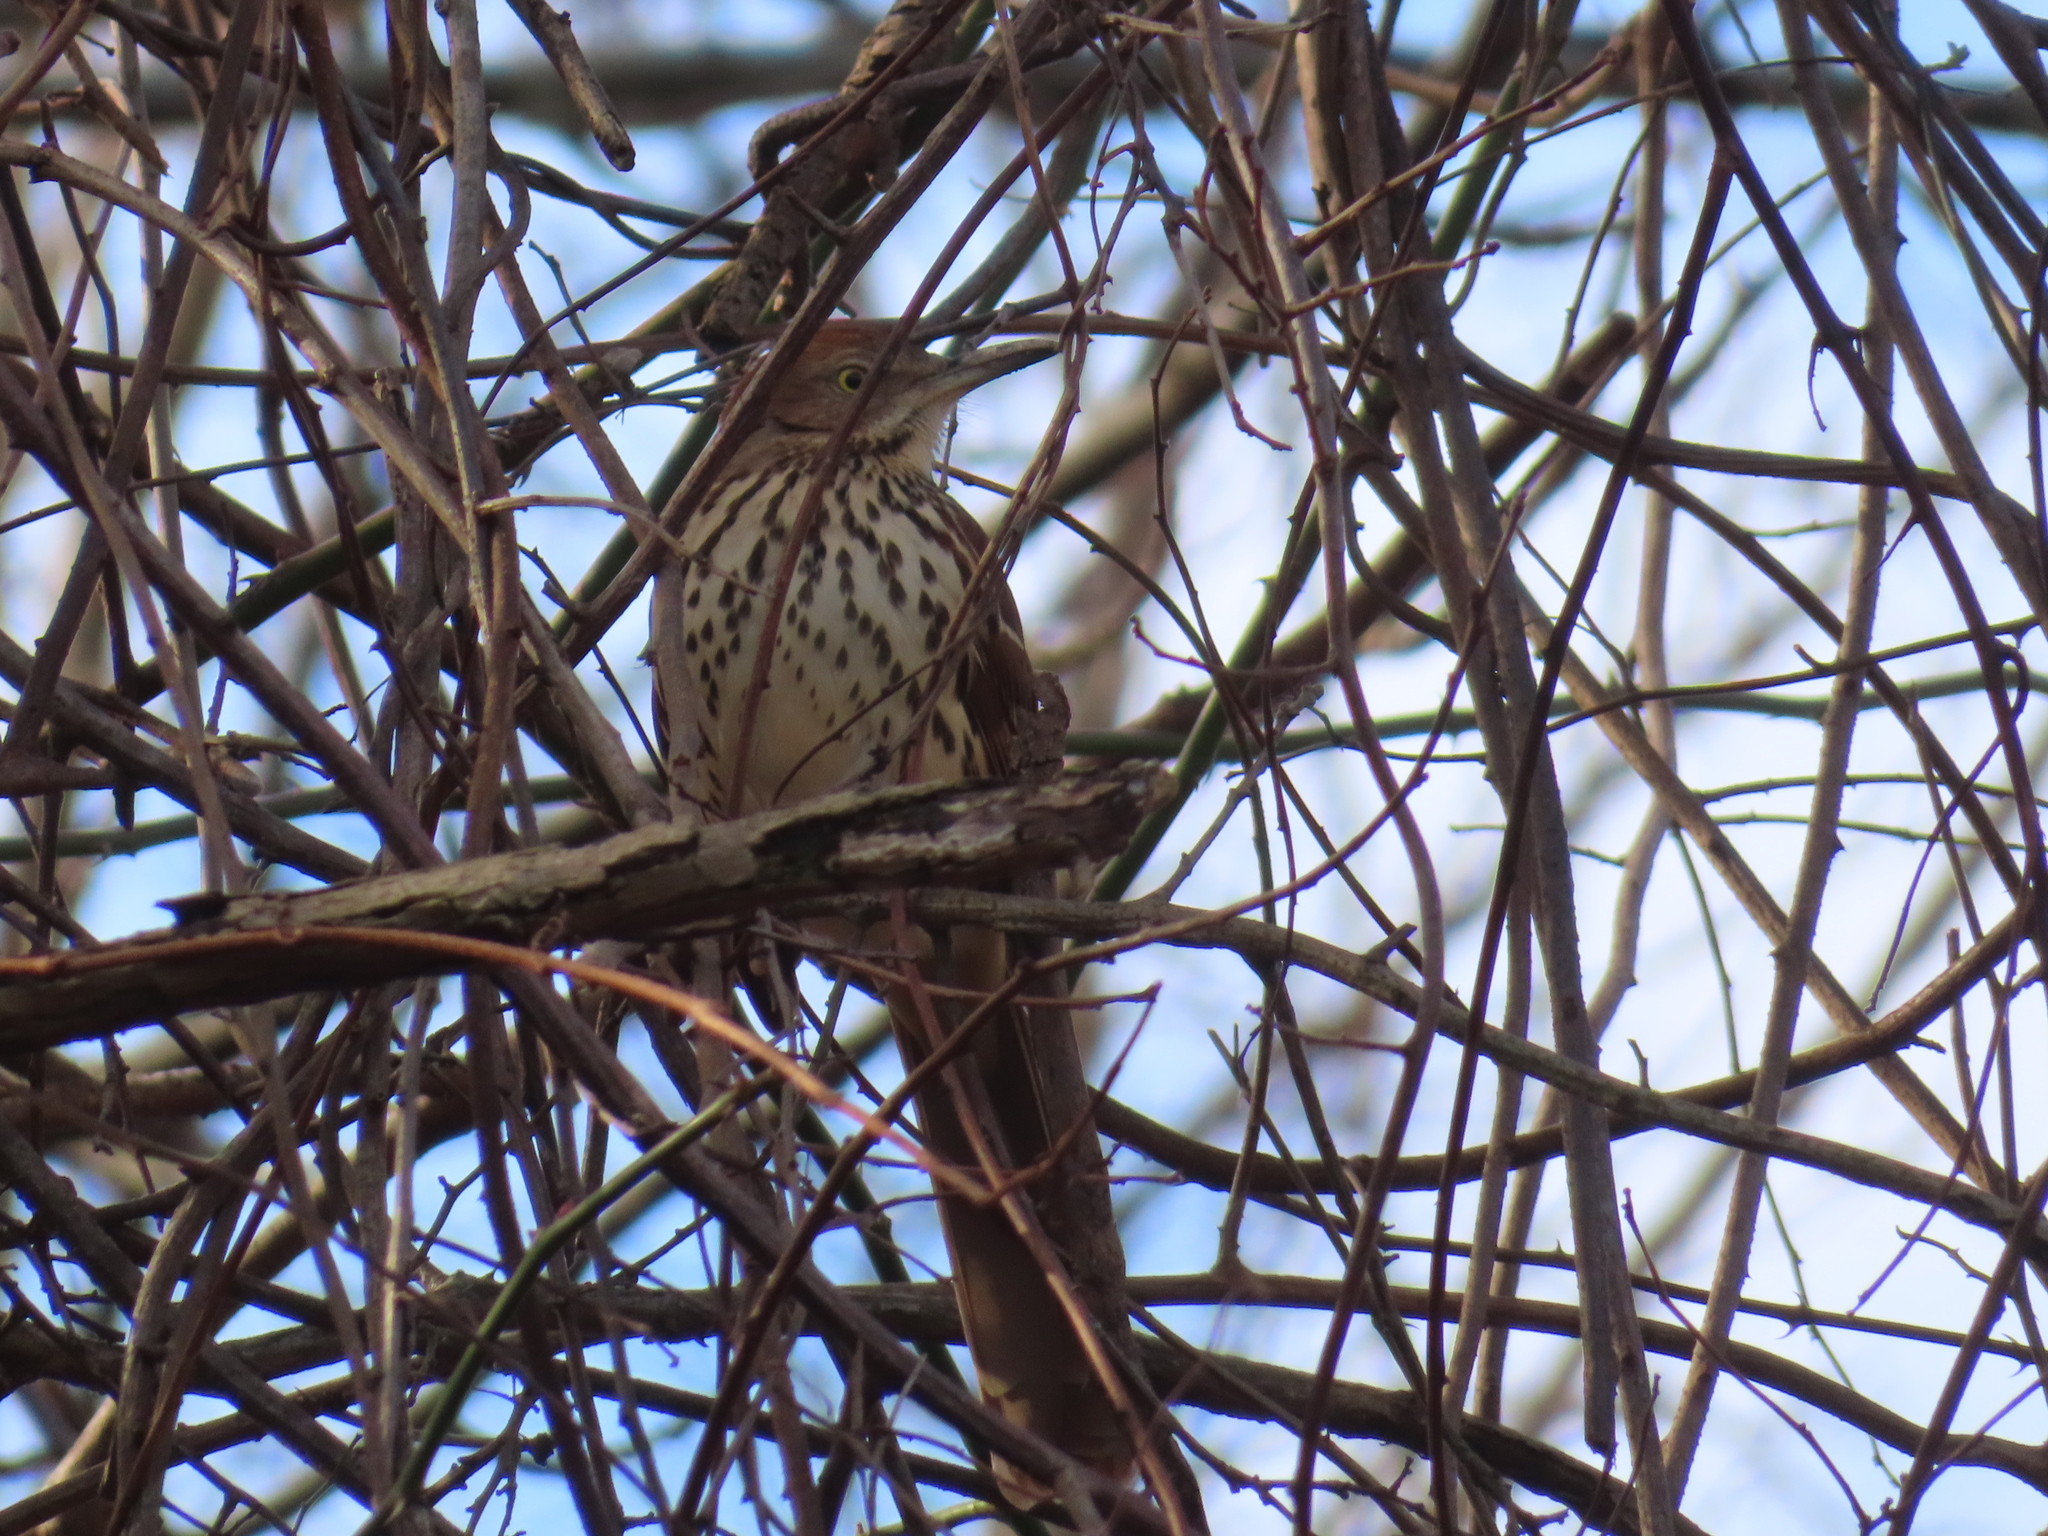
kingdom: Animalia
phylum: Chordata
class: Aves
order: Passeriformes
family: Mimidae
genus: Toxostoma
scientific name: Toxostoma rufum
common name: Brown thrasher
